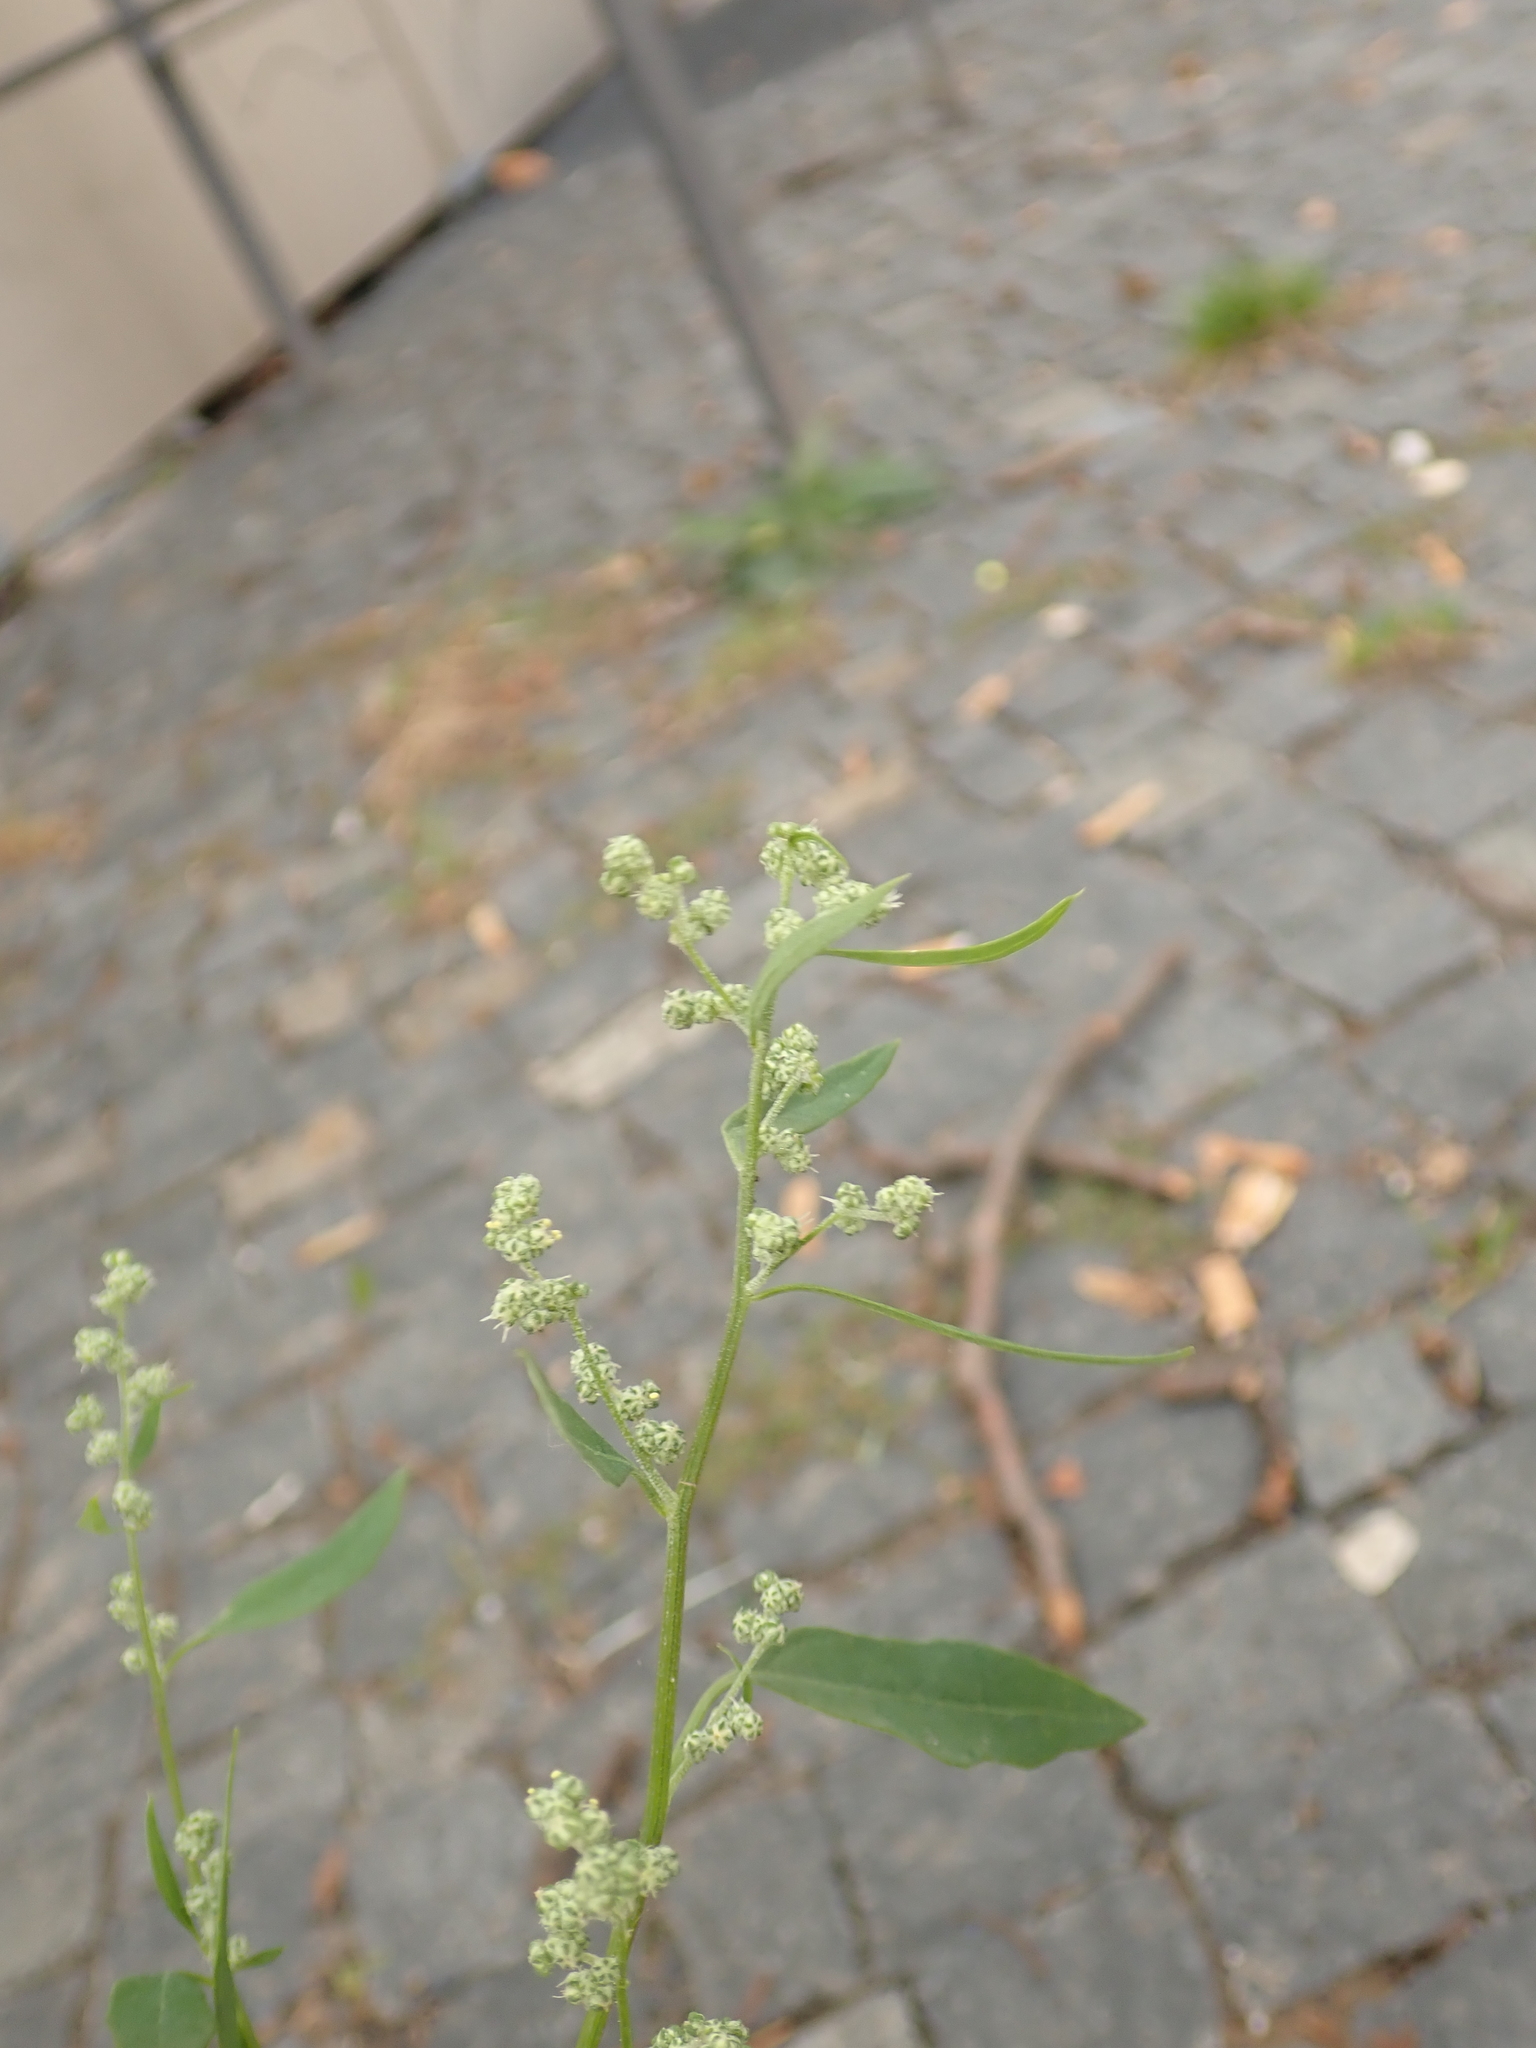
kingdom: Plantae
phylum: Tracheophyta
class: Magnoliopsida
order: Caryophyllales
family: Amaranthaceae
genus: Chenopodium
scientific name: Chenopodium album
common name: Fat-hen
